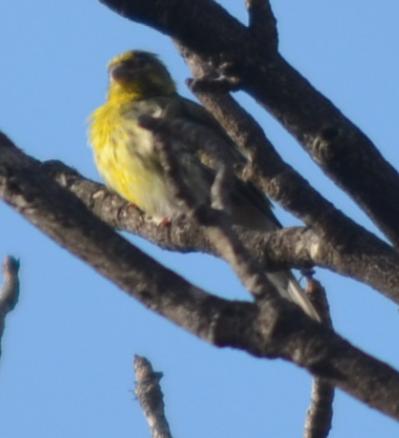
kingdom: Animalia
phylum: Chordata
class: Aves
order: Passeriformes
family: Fringillidae
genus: Serinus
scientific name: Serinus serinus
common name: European serin
